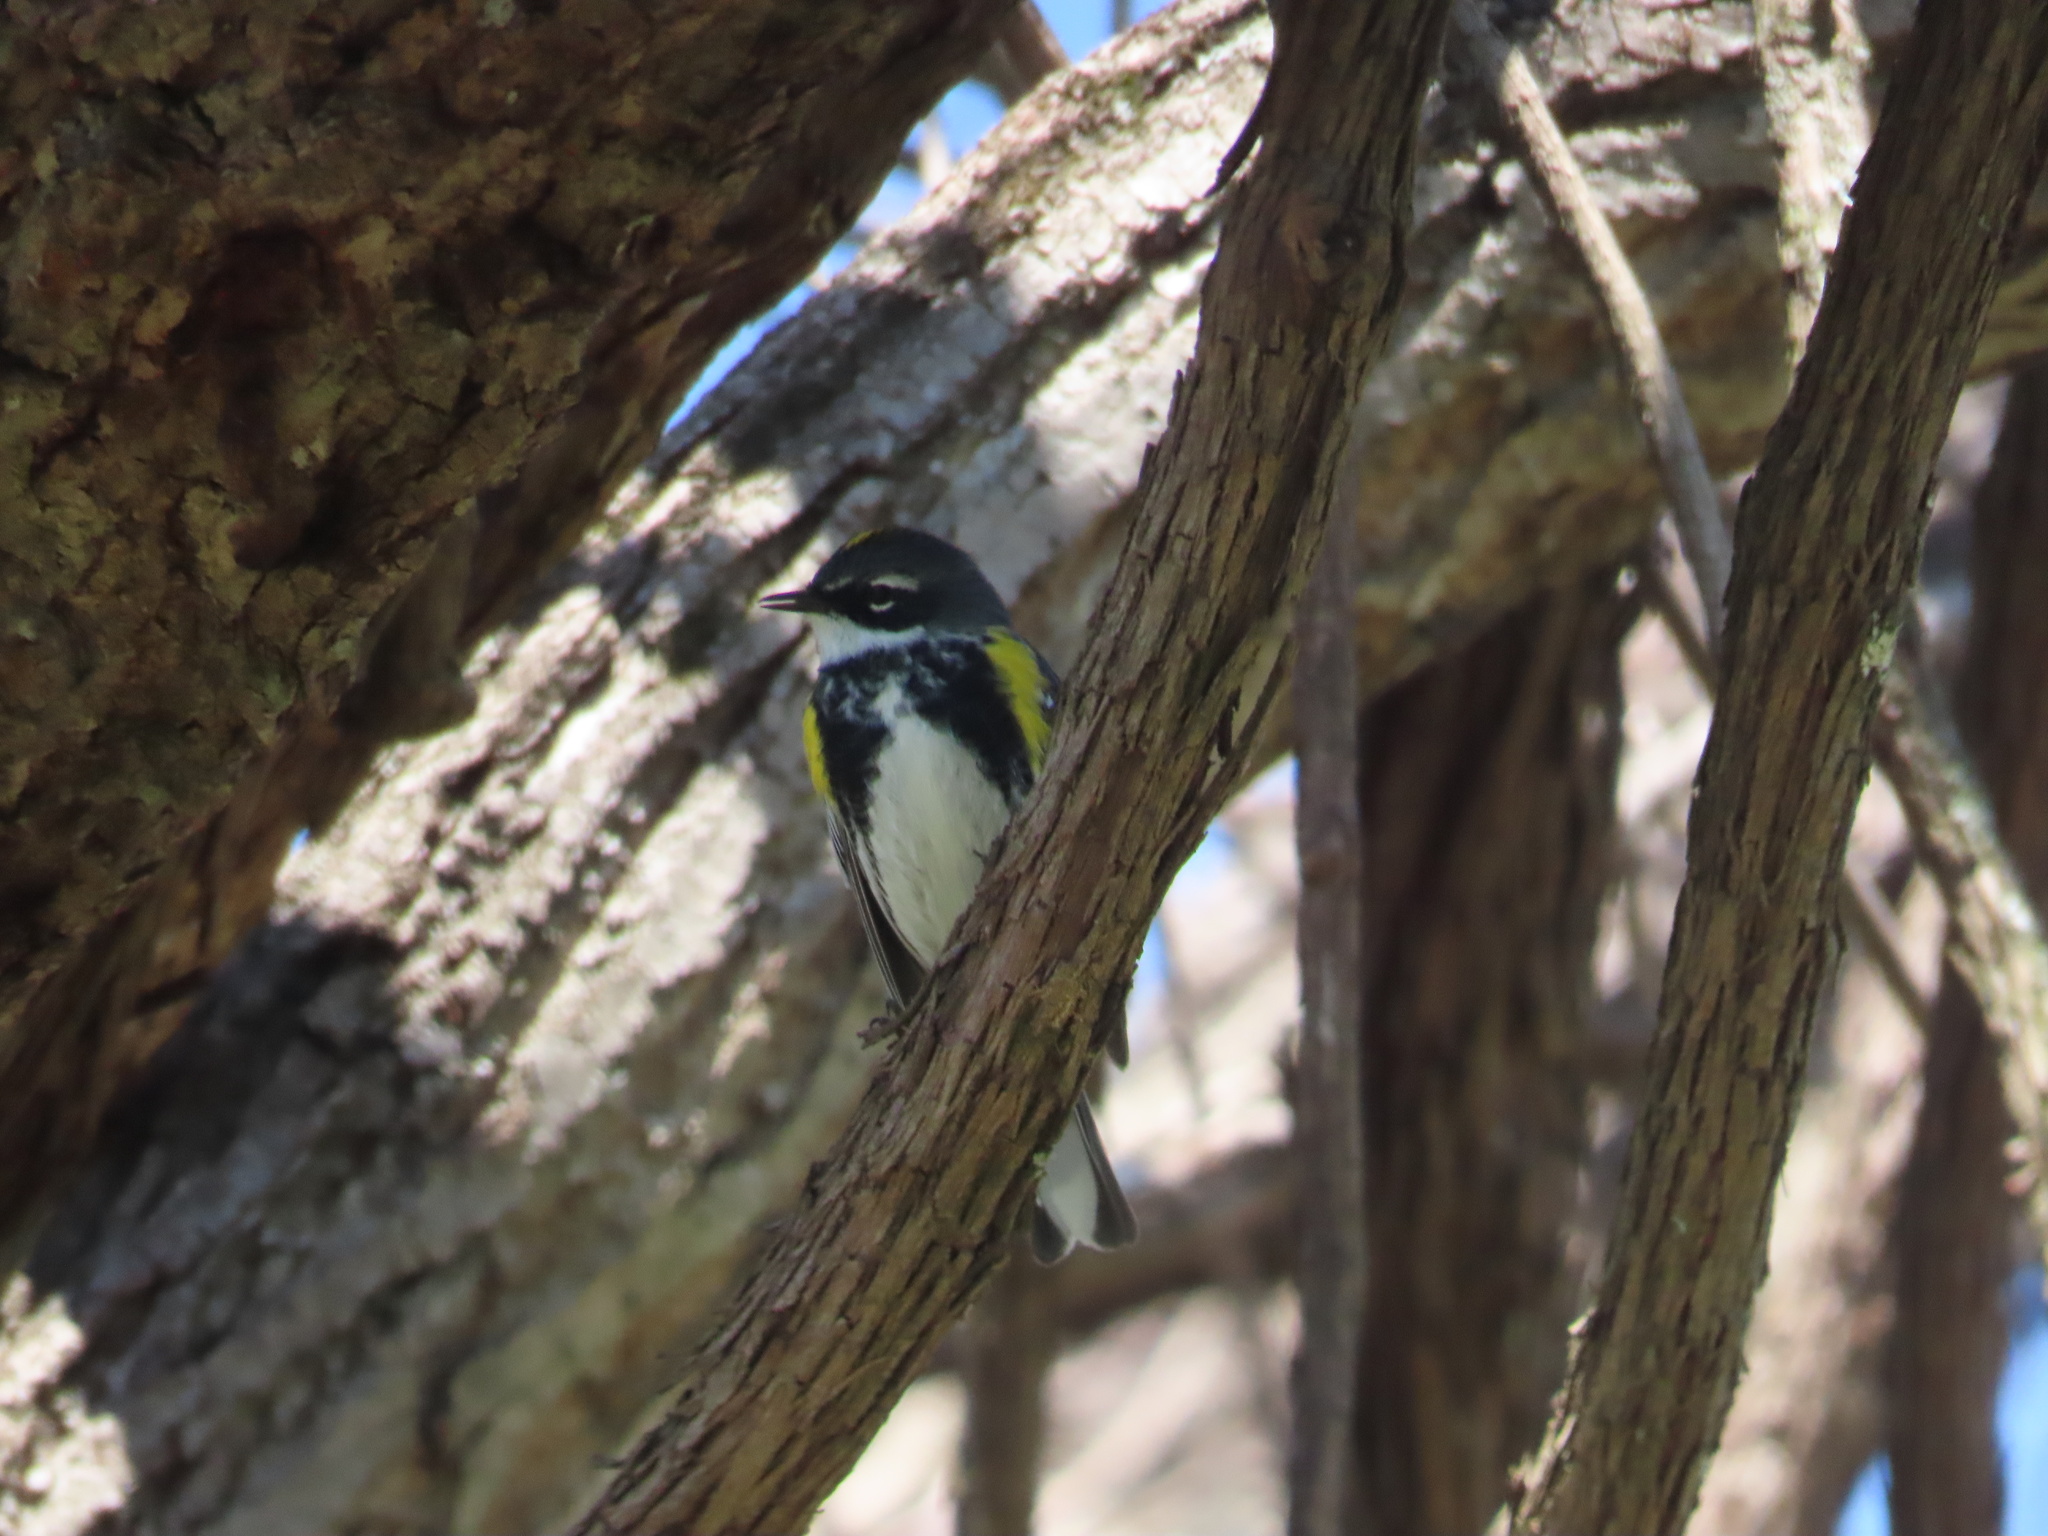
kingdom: Animalia
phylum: Chordata
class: Aves
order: Passeriformes
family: Parulidae
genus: Setophaga
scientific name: Setophaga coronata
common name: Myrtle warbler
